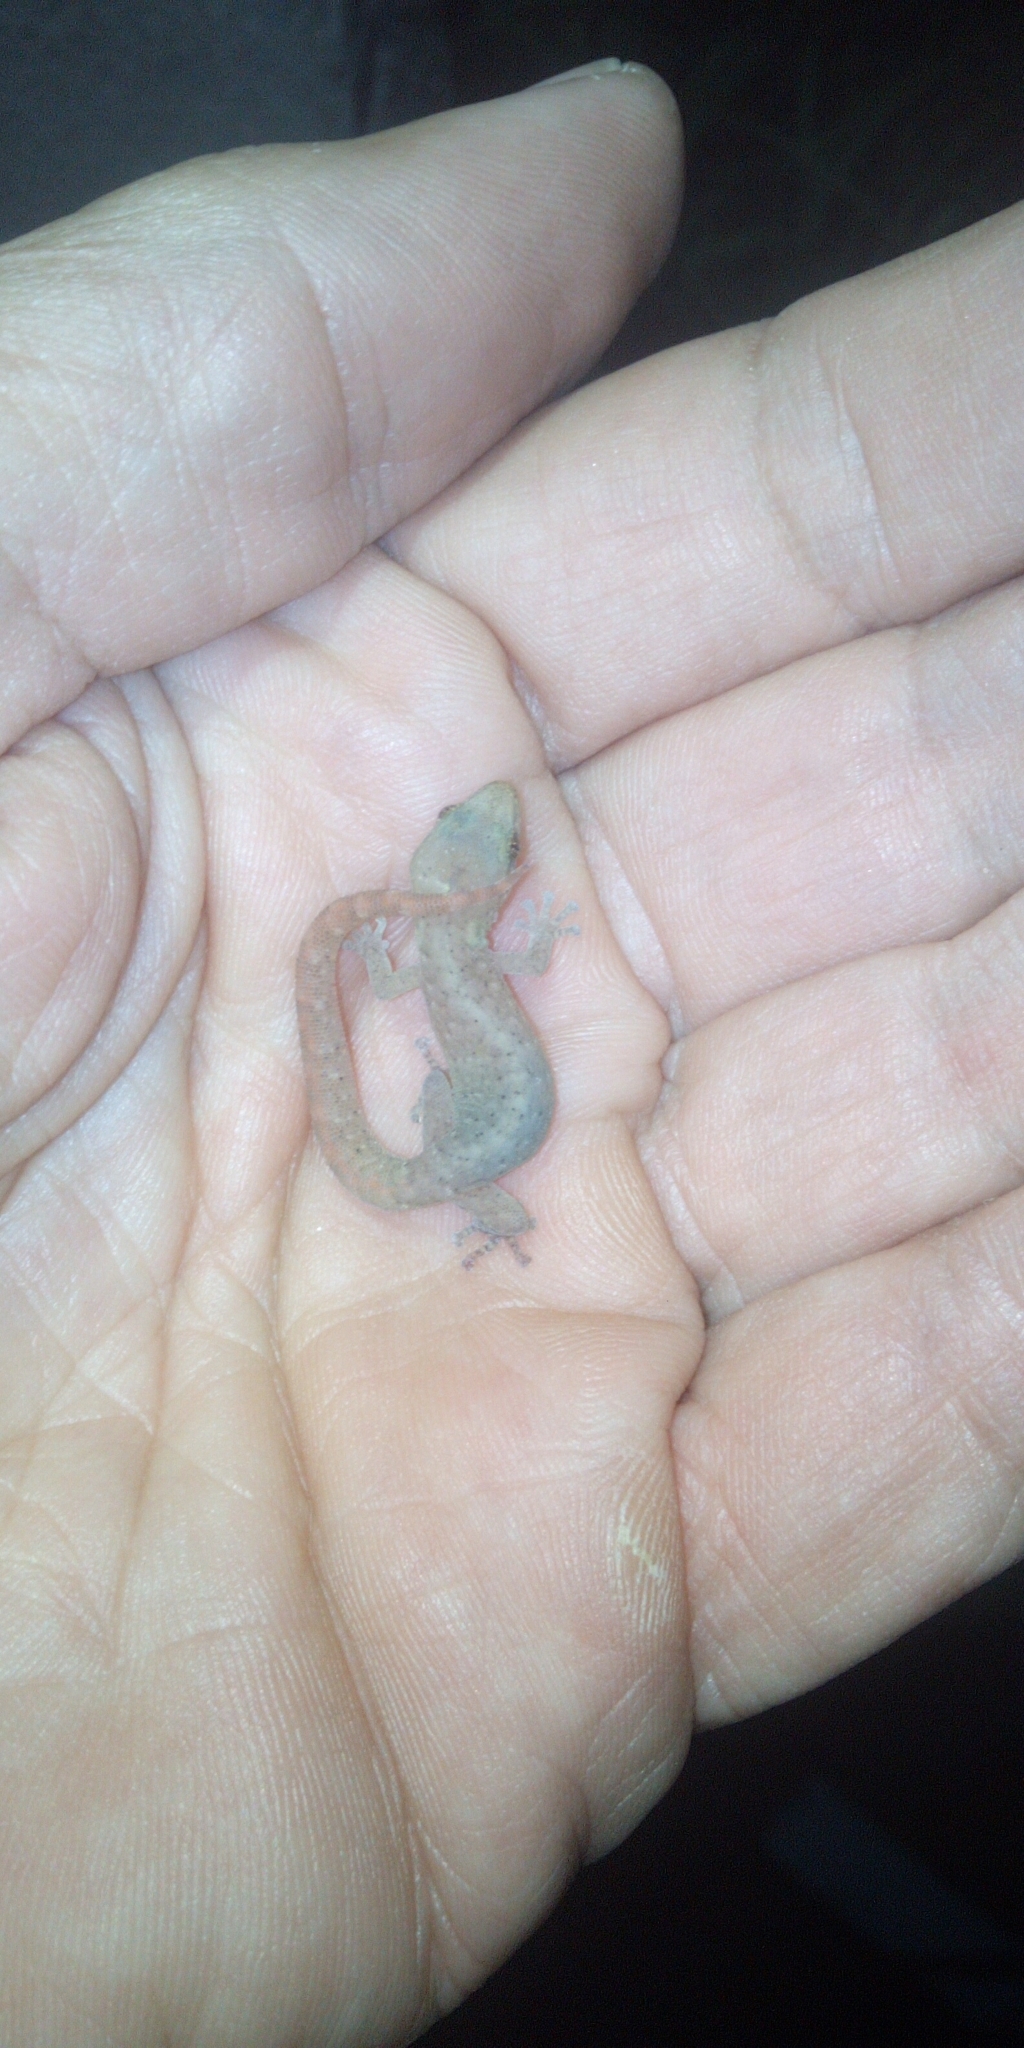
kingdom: Animalia
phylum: Chordata
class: Squamata
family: Gekkonidae
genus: Afrogecko
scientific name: Afrogecko porphyreus
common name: Marbled leaf-toed gecko
